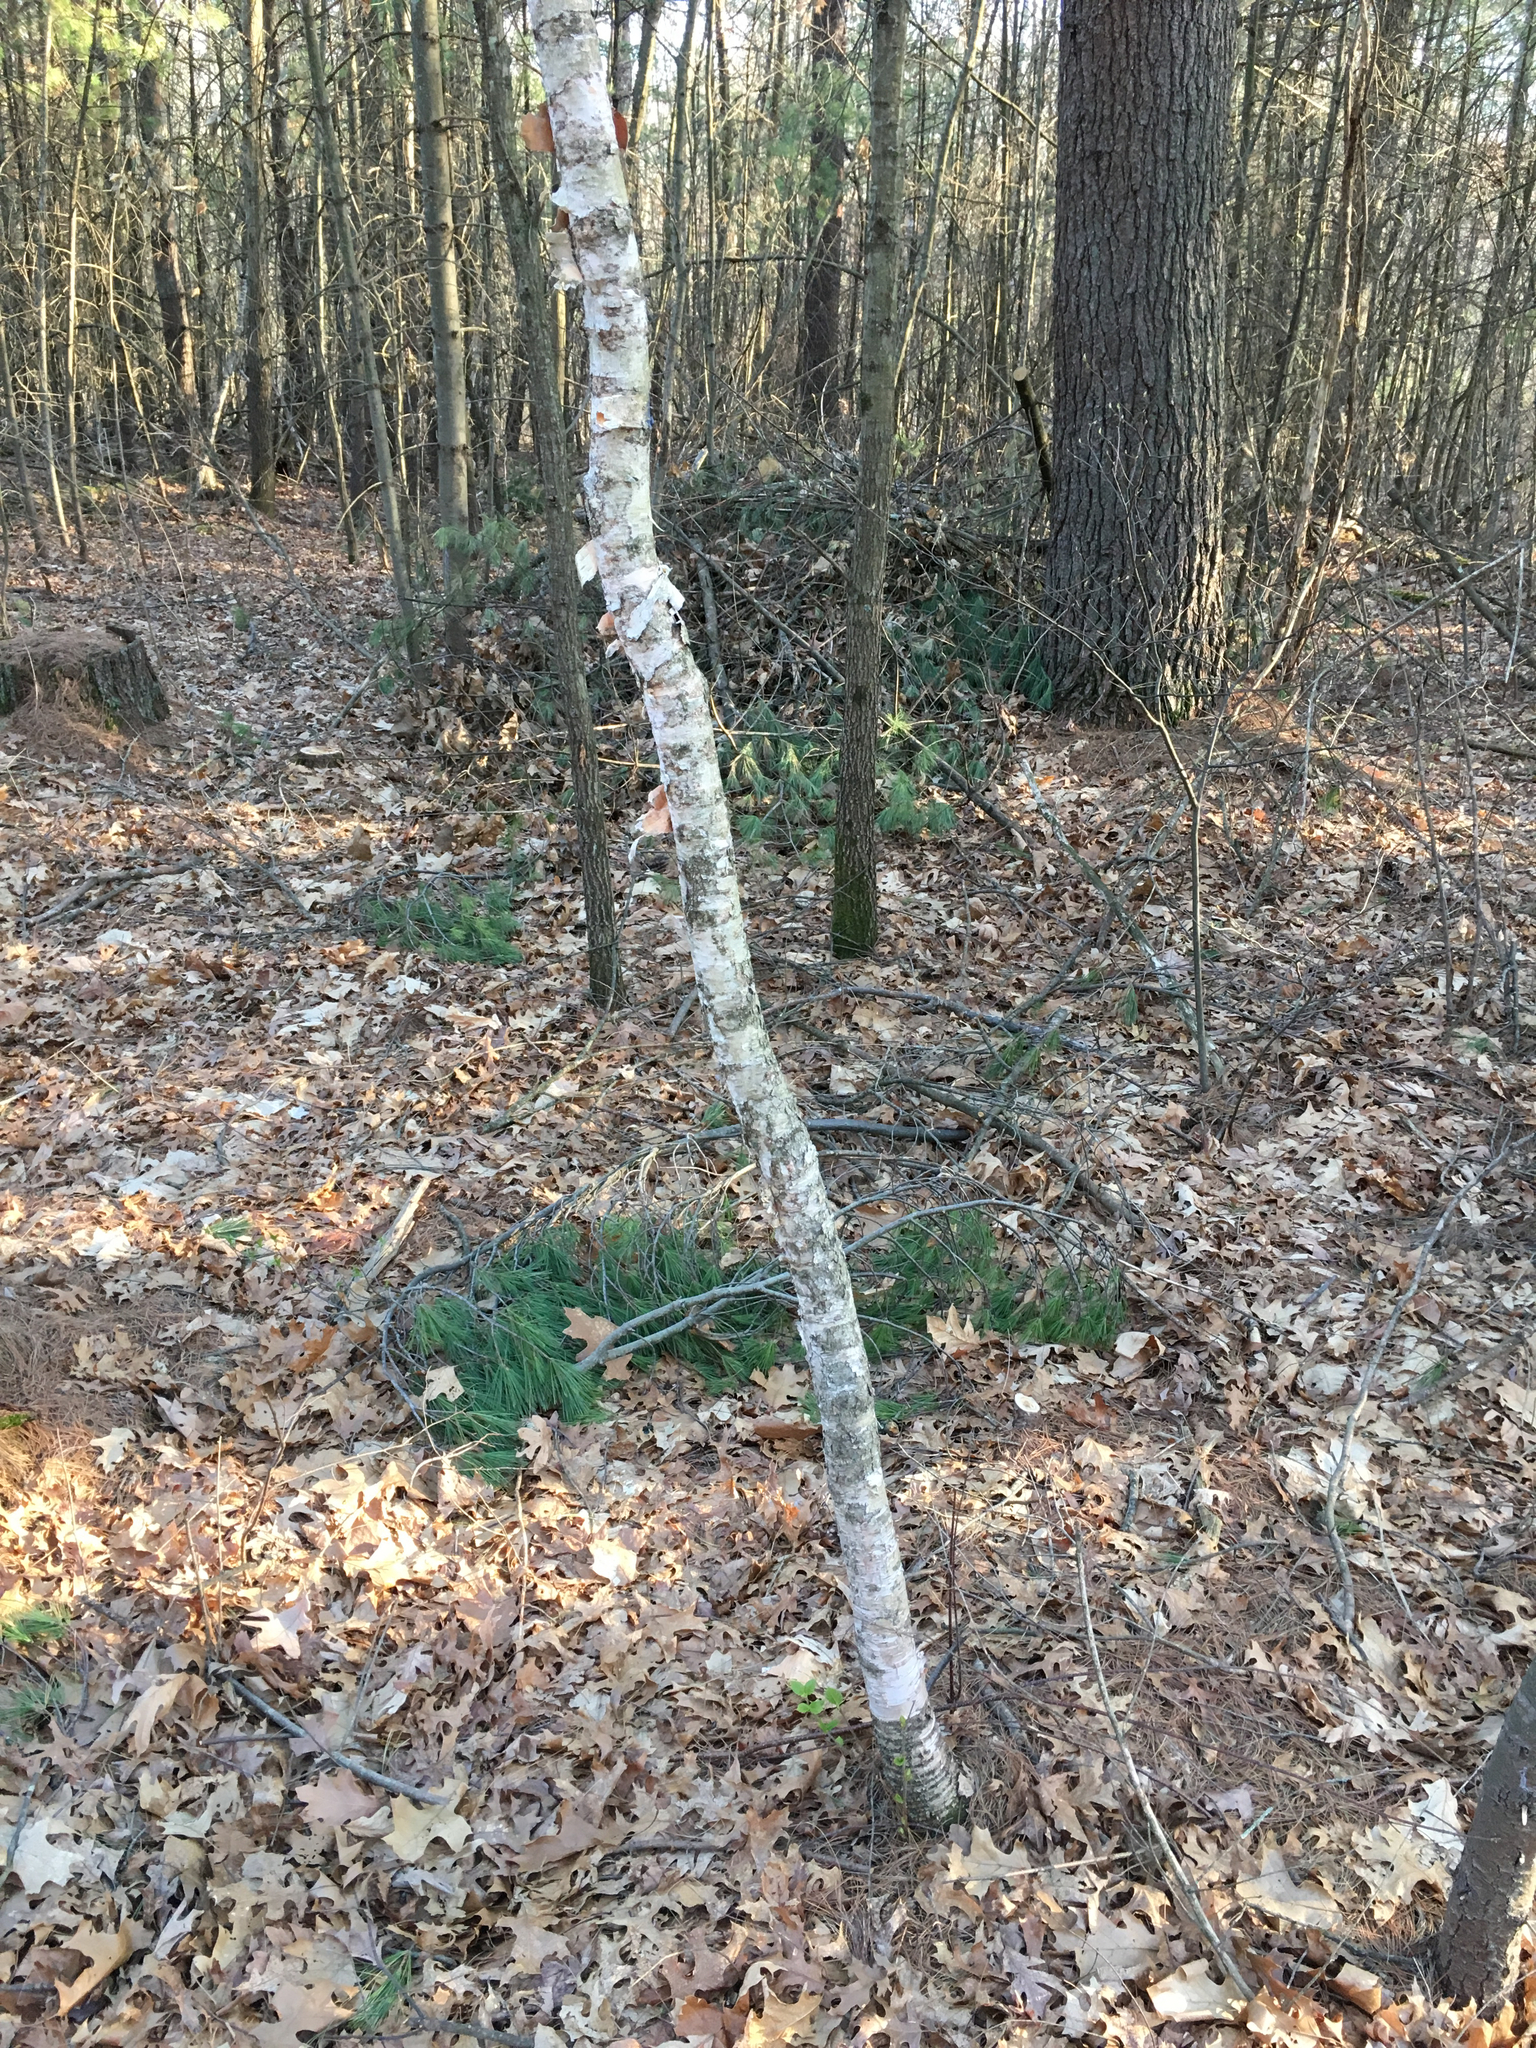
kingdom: Plantae
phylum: Tracheophyta
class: Magnoliopsida
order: Fagales
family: Betulaceae
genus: Betula
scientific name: Betula papyrifera
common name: Paper birch
